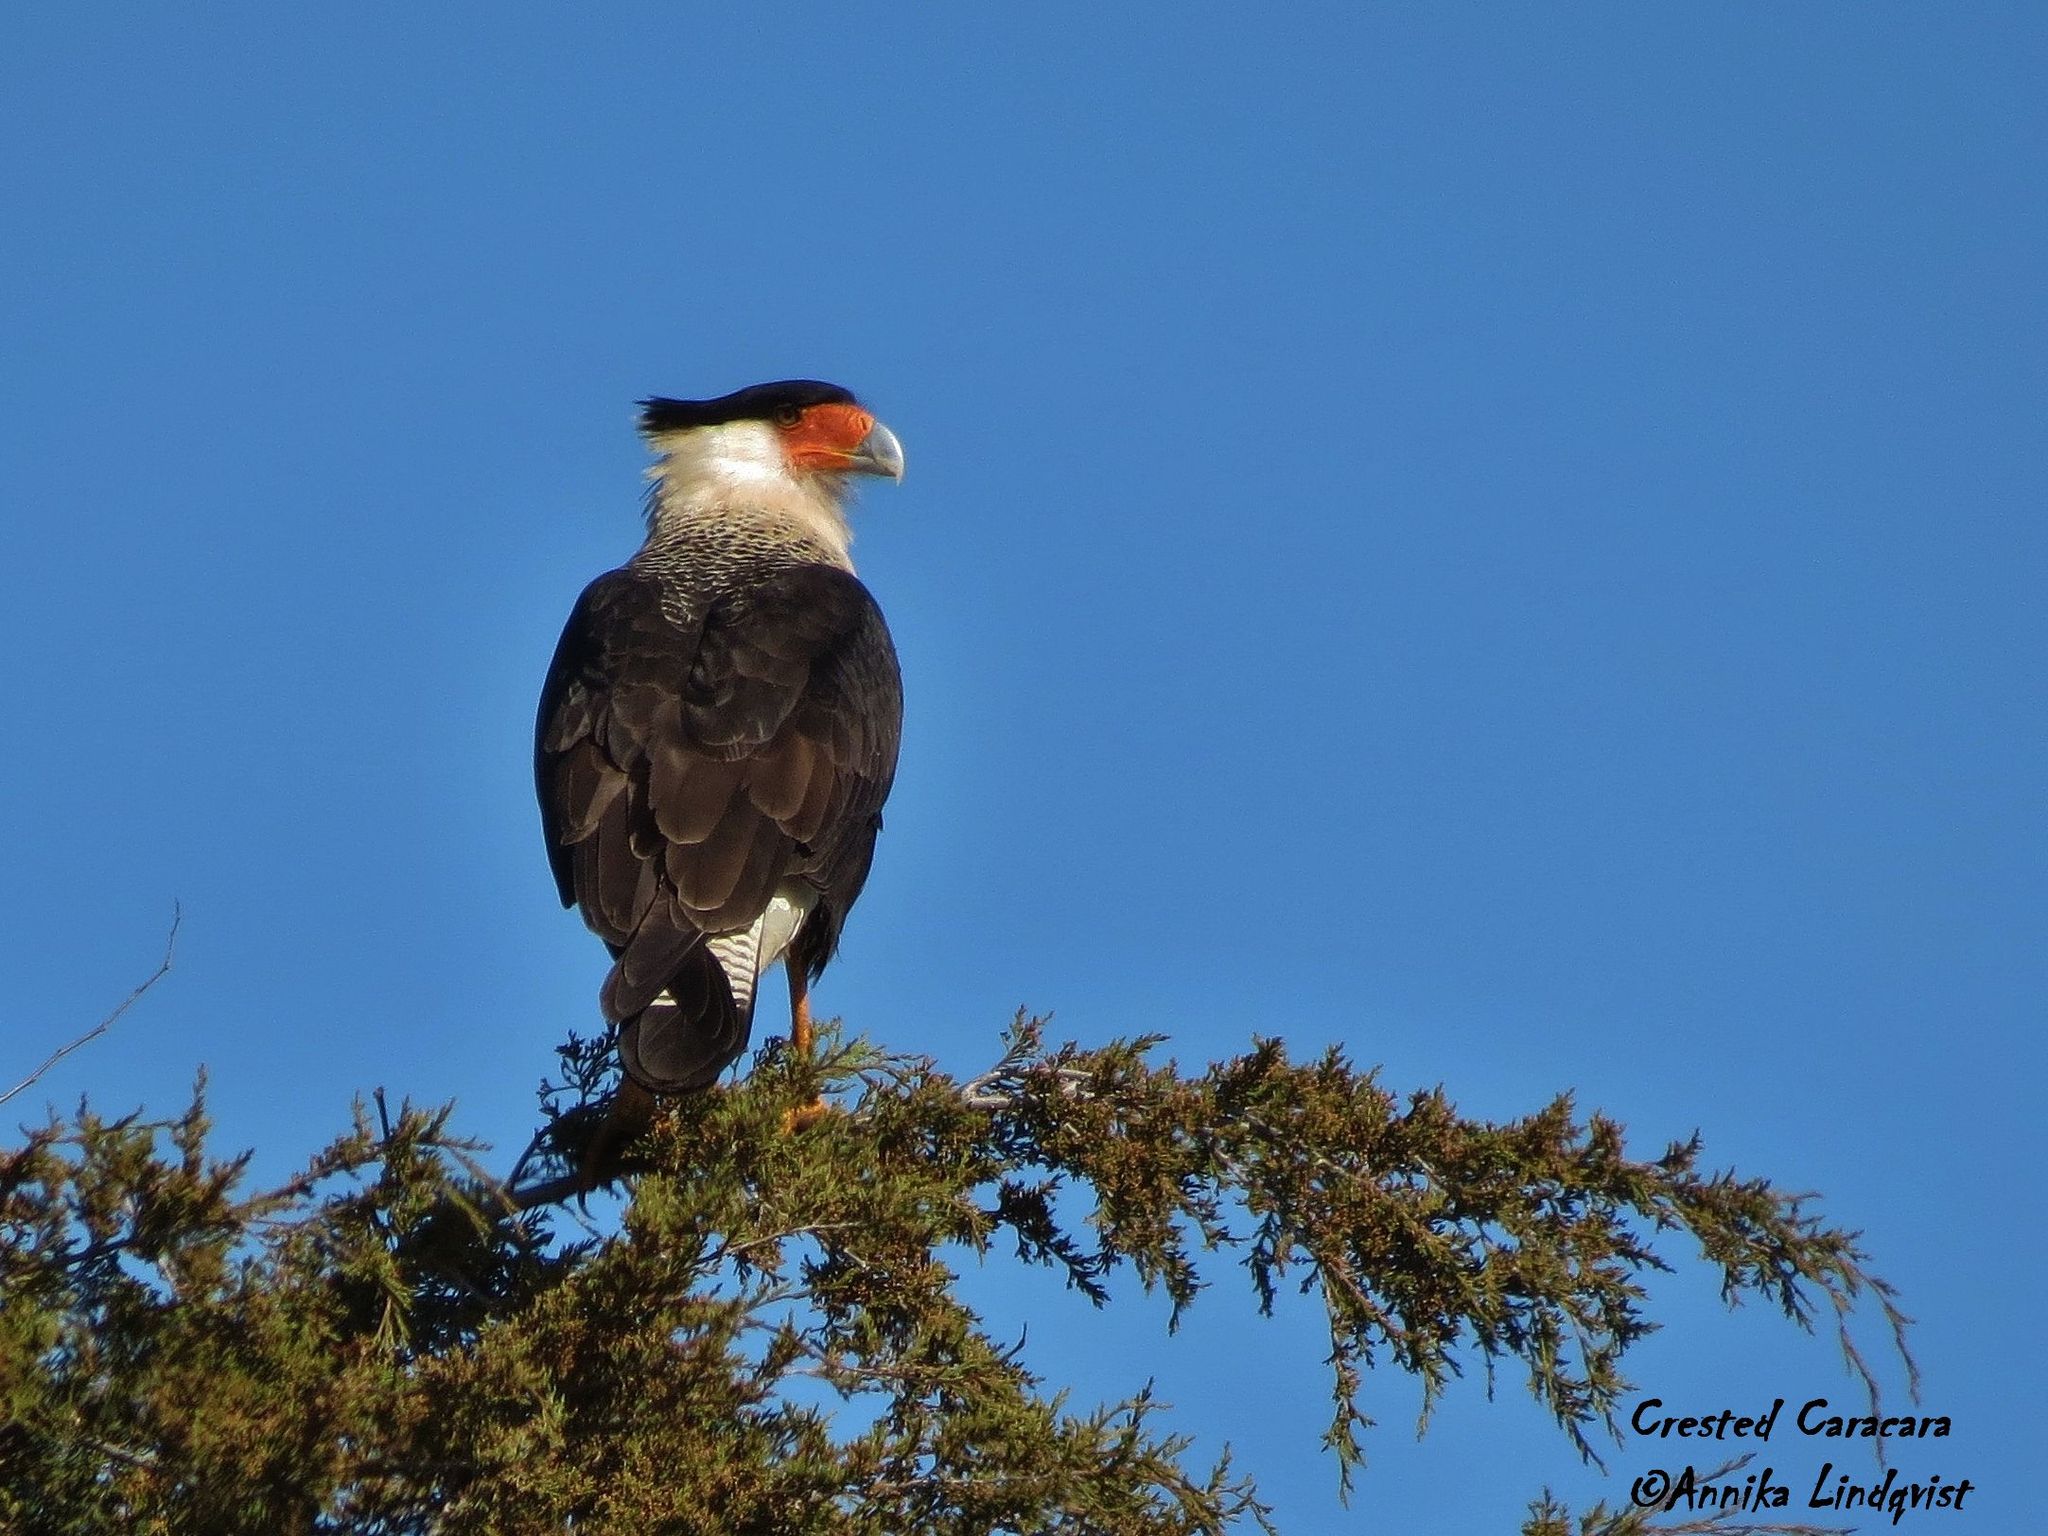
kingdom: Animalia
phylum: Chordata
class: Aves
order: Falconiformes
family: Falconidae
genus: Caracara
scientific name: Caracara plancus
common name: Southern caracara
